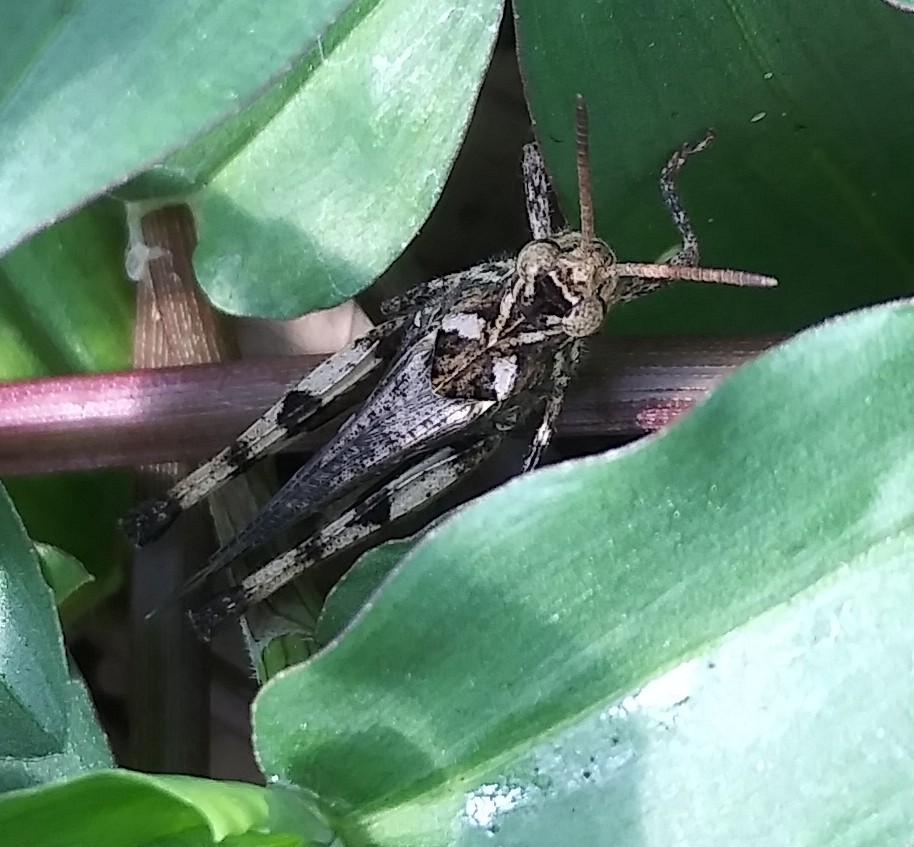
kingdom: Animalia
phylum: Arthropoda
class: Insecta
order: Orthoptera
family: Acrididae
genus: Chortophaga
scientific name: Chortophaga australior
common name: Southern green-striped grasshopper
